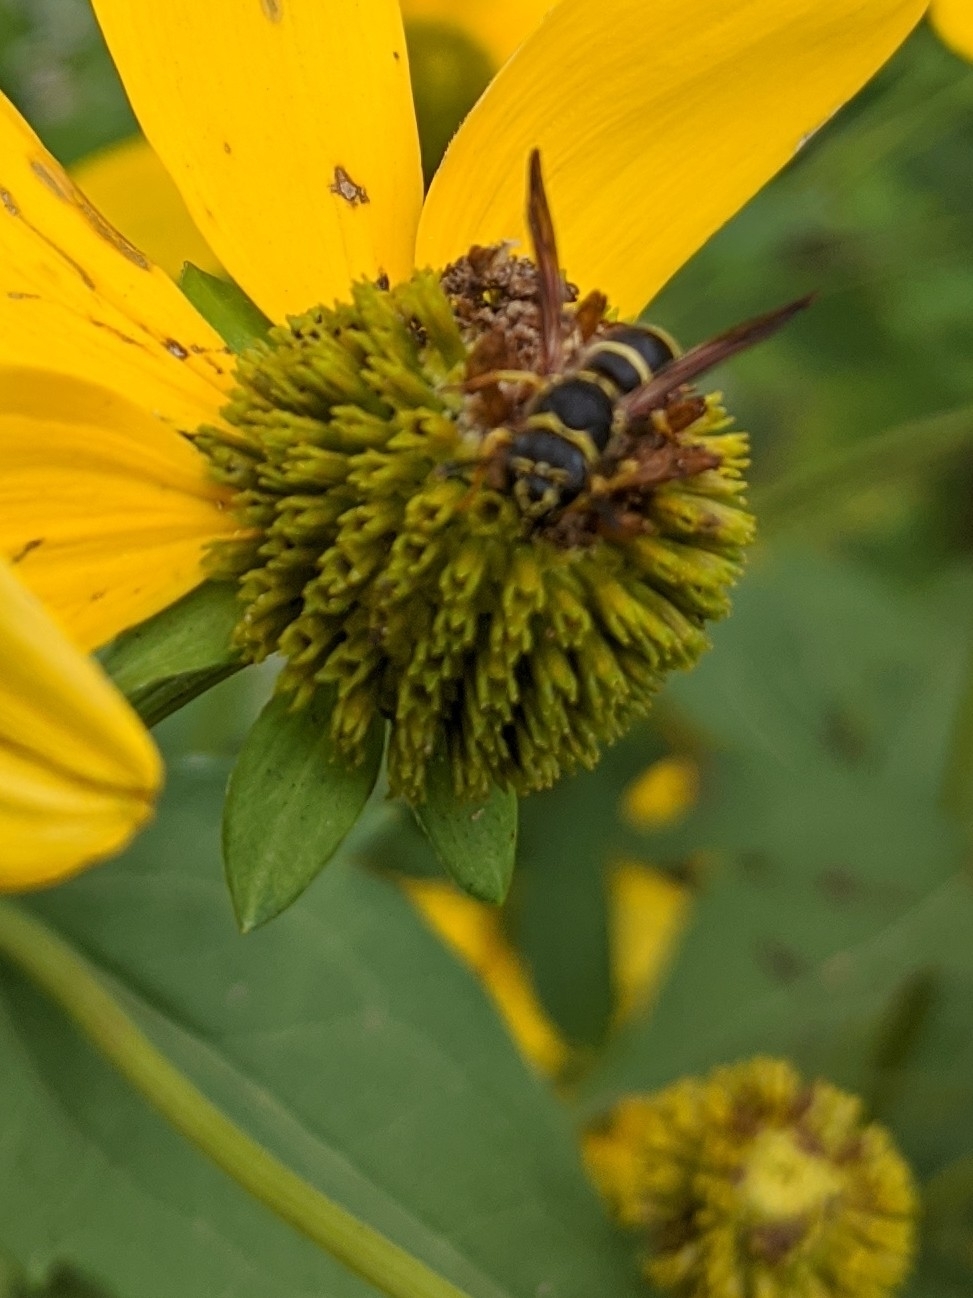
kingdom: Animalia
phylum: Arthropoda
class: Insecta
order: Hymenoptera
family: Vespidae
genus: Ancistrocerus
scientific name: Ancistrocerus
